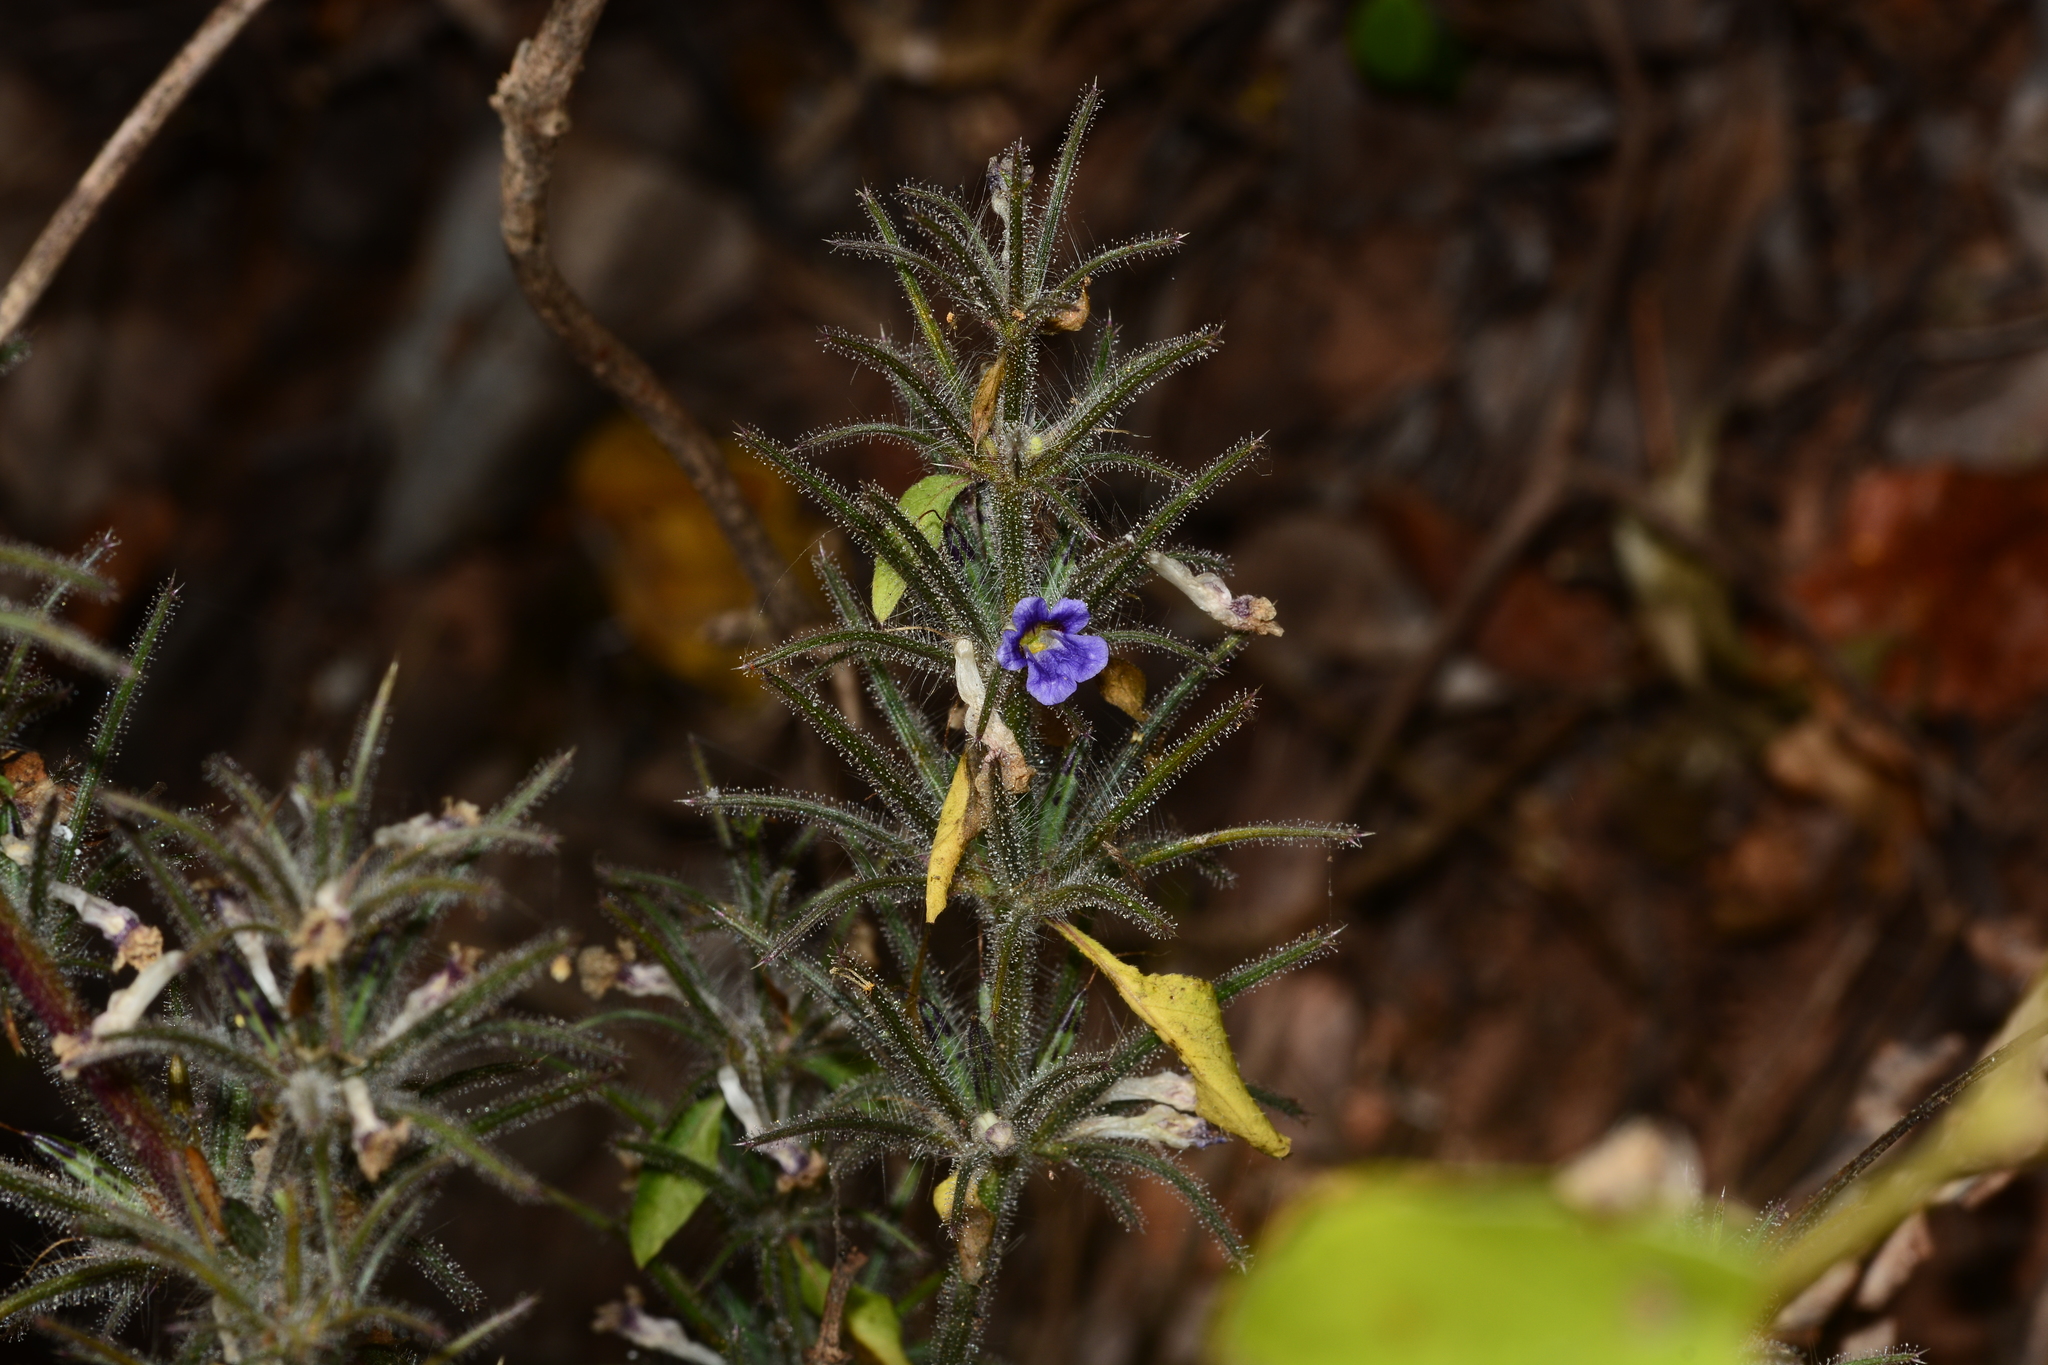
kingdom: Plantae
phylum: Tracheophyta
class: Magnoliopsida
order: Lamiales
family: Acanthaceae
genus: Haplanthodes
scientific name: Haplanthodes verticillatus
